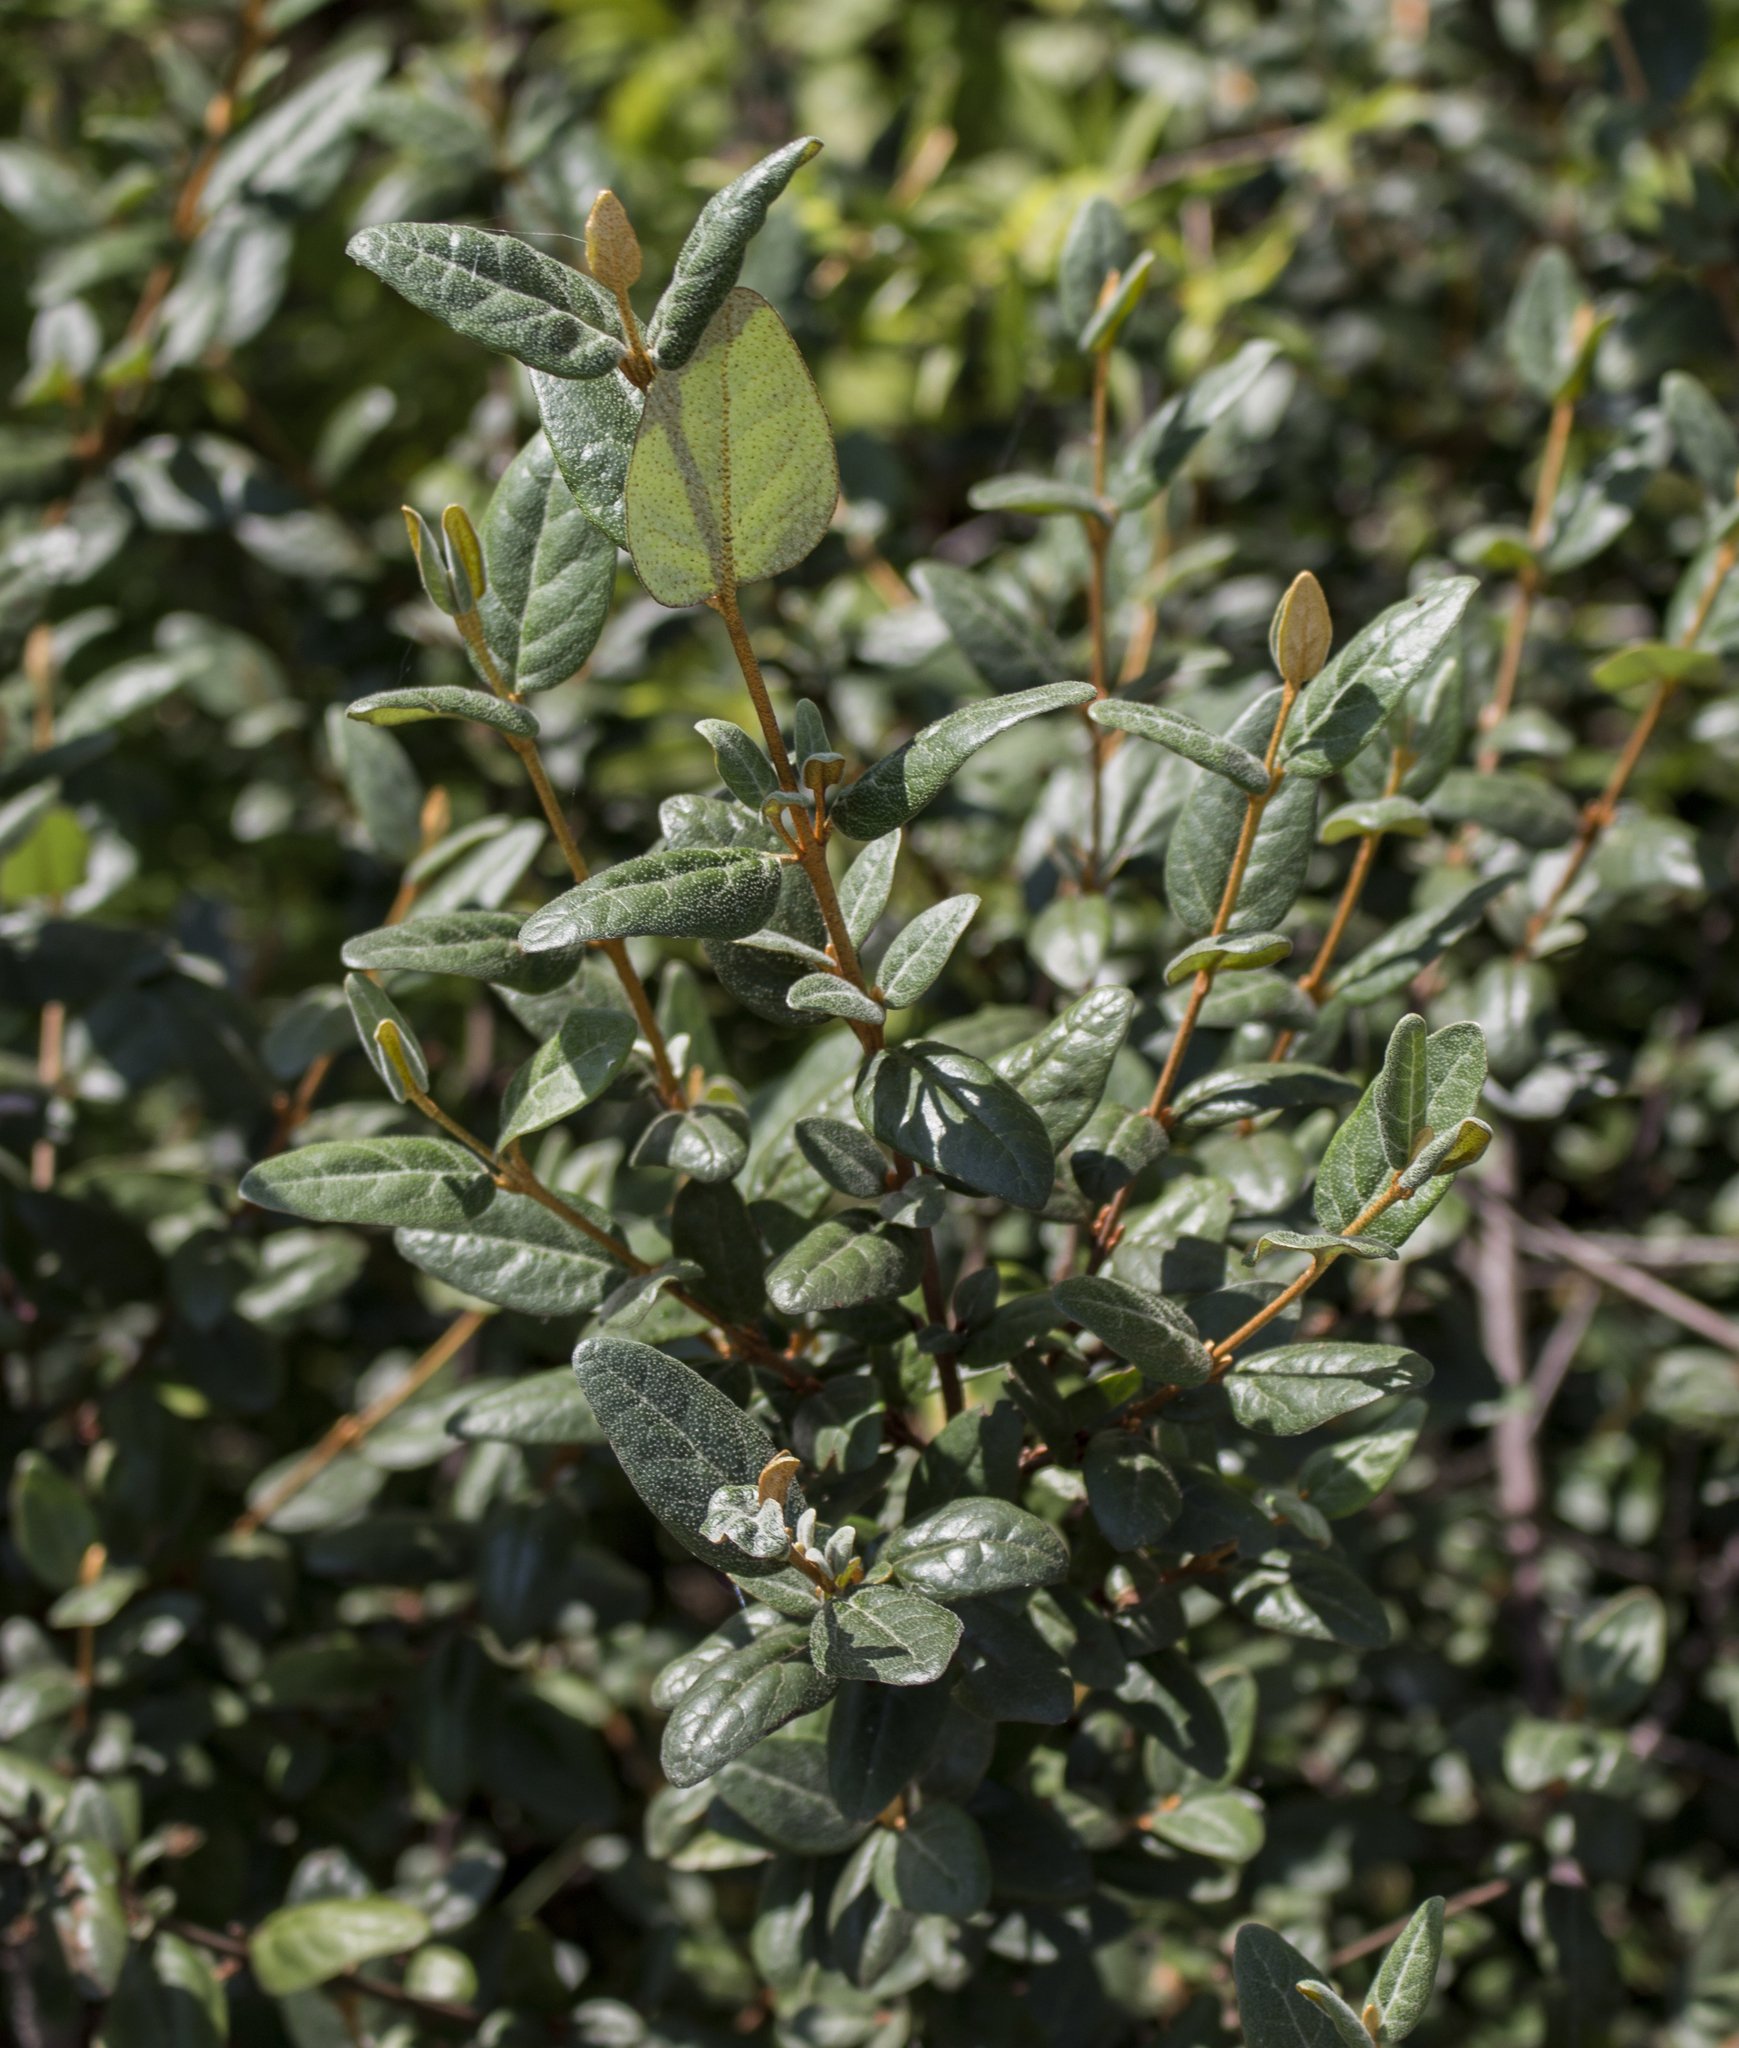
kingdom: Plantae
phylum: Tracheophyta
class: Magnoliopsida
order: Rosales
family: Elaeagnaceae
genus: Shepherdia
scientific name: Shepherdia canadensis
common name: Soapberry
